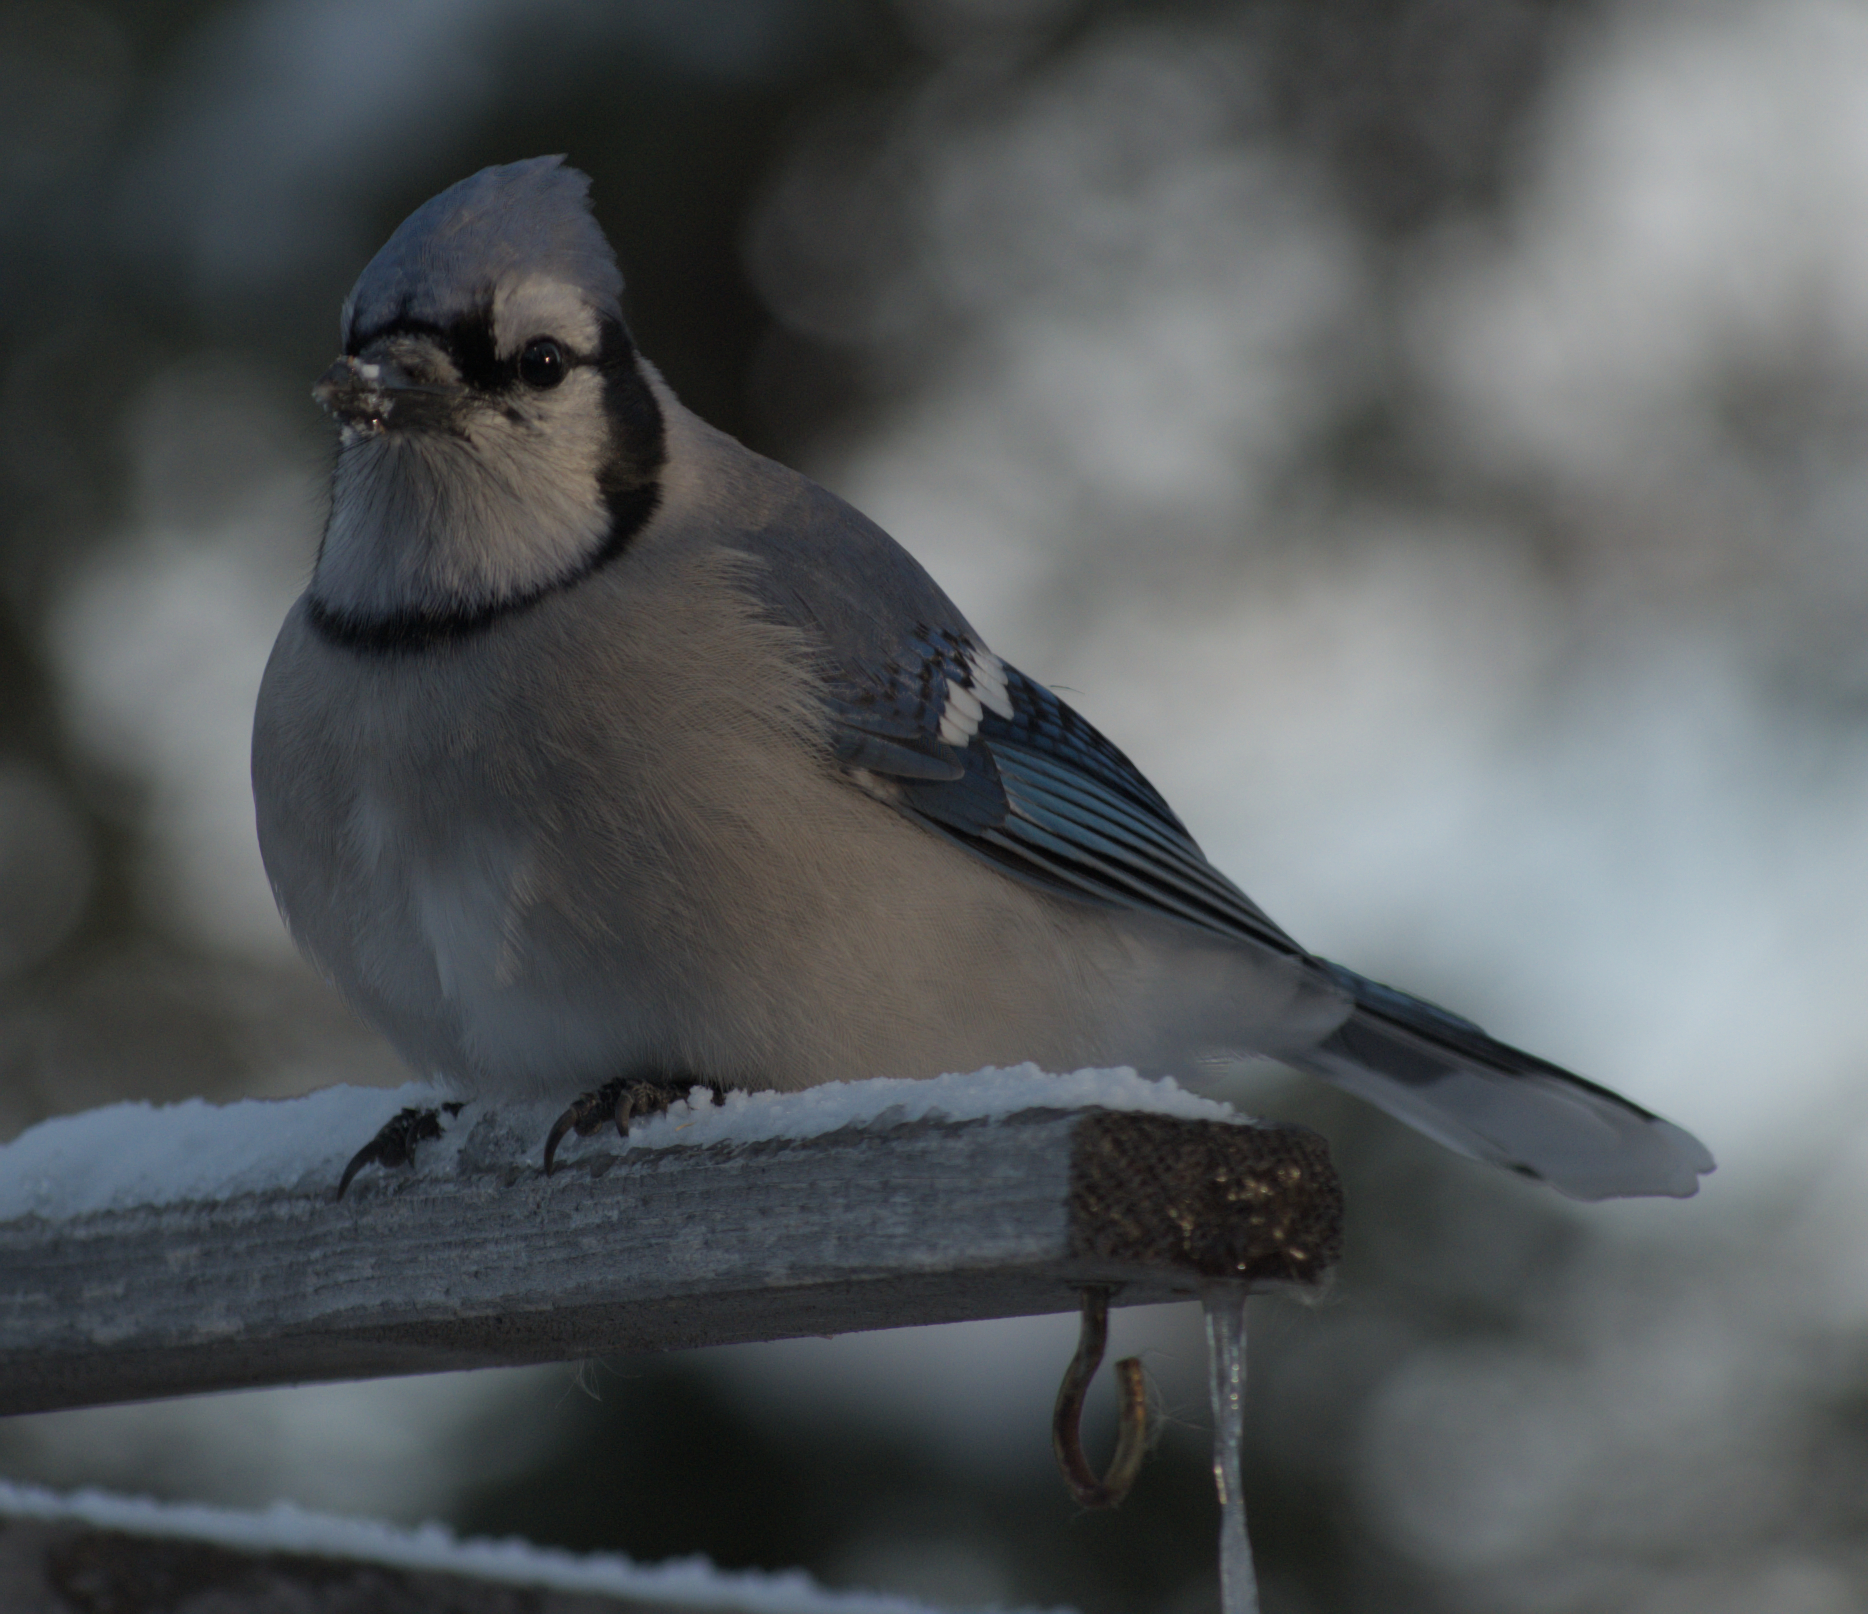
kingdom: Animalia
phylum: Chordata
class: Aves
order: Passeriformes
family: Corvidae
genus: Cyanocitta
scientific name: Cyanocitta cristata
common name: Blue jay
